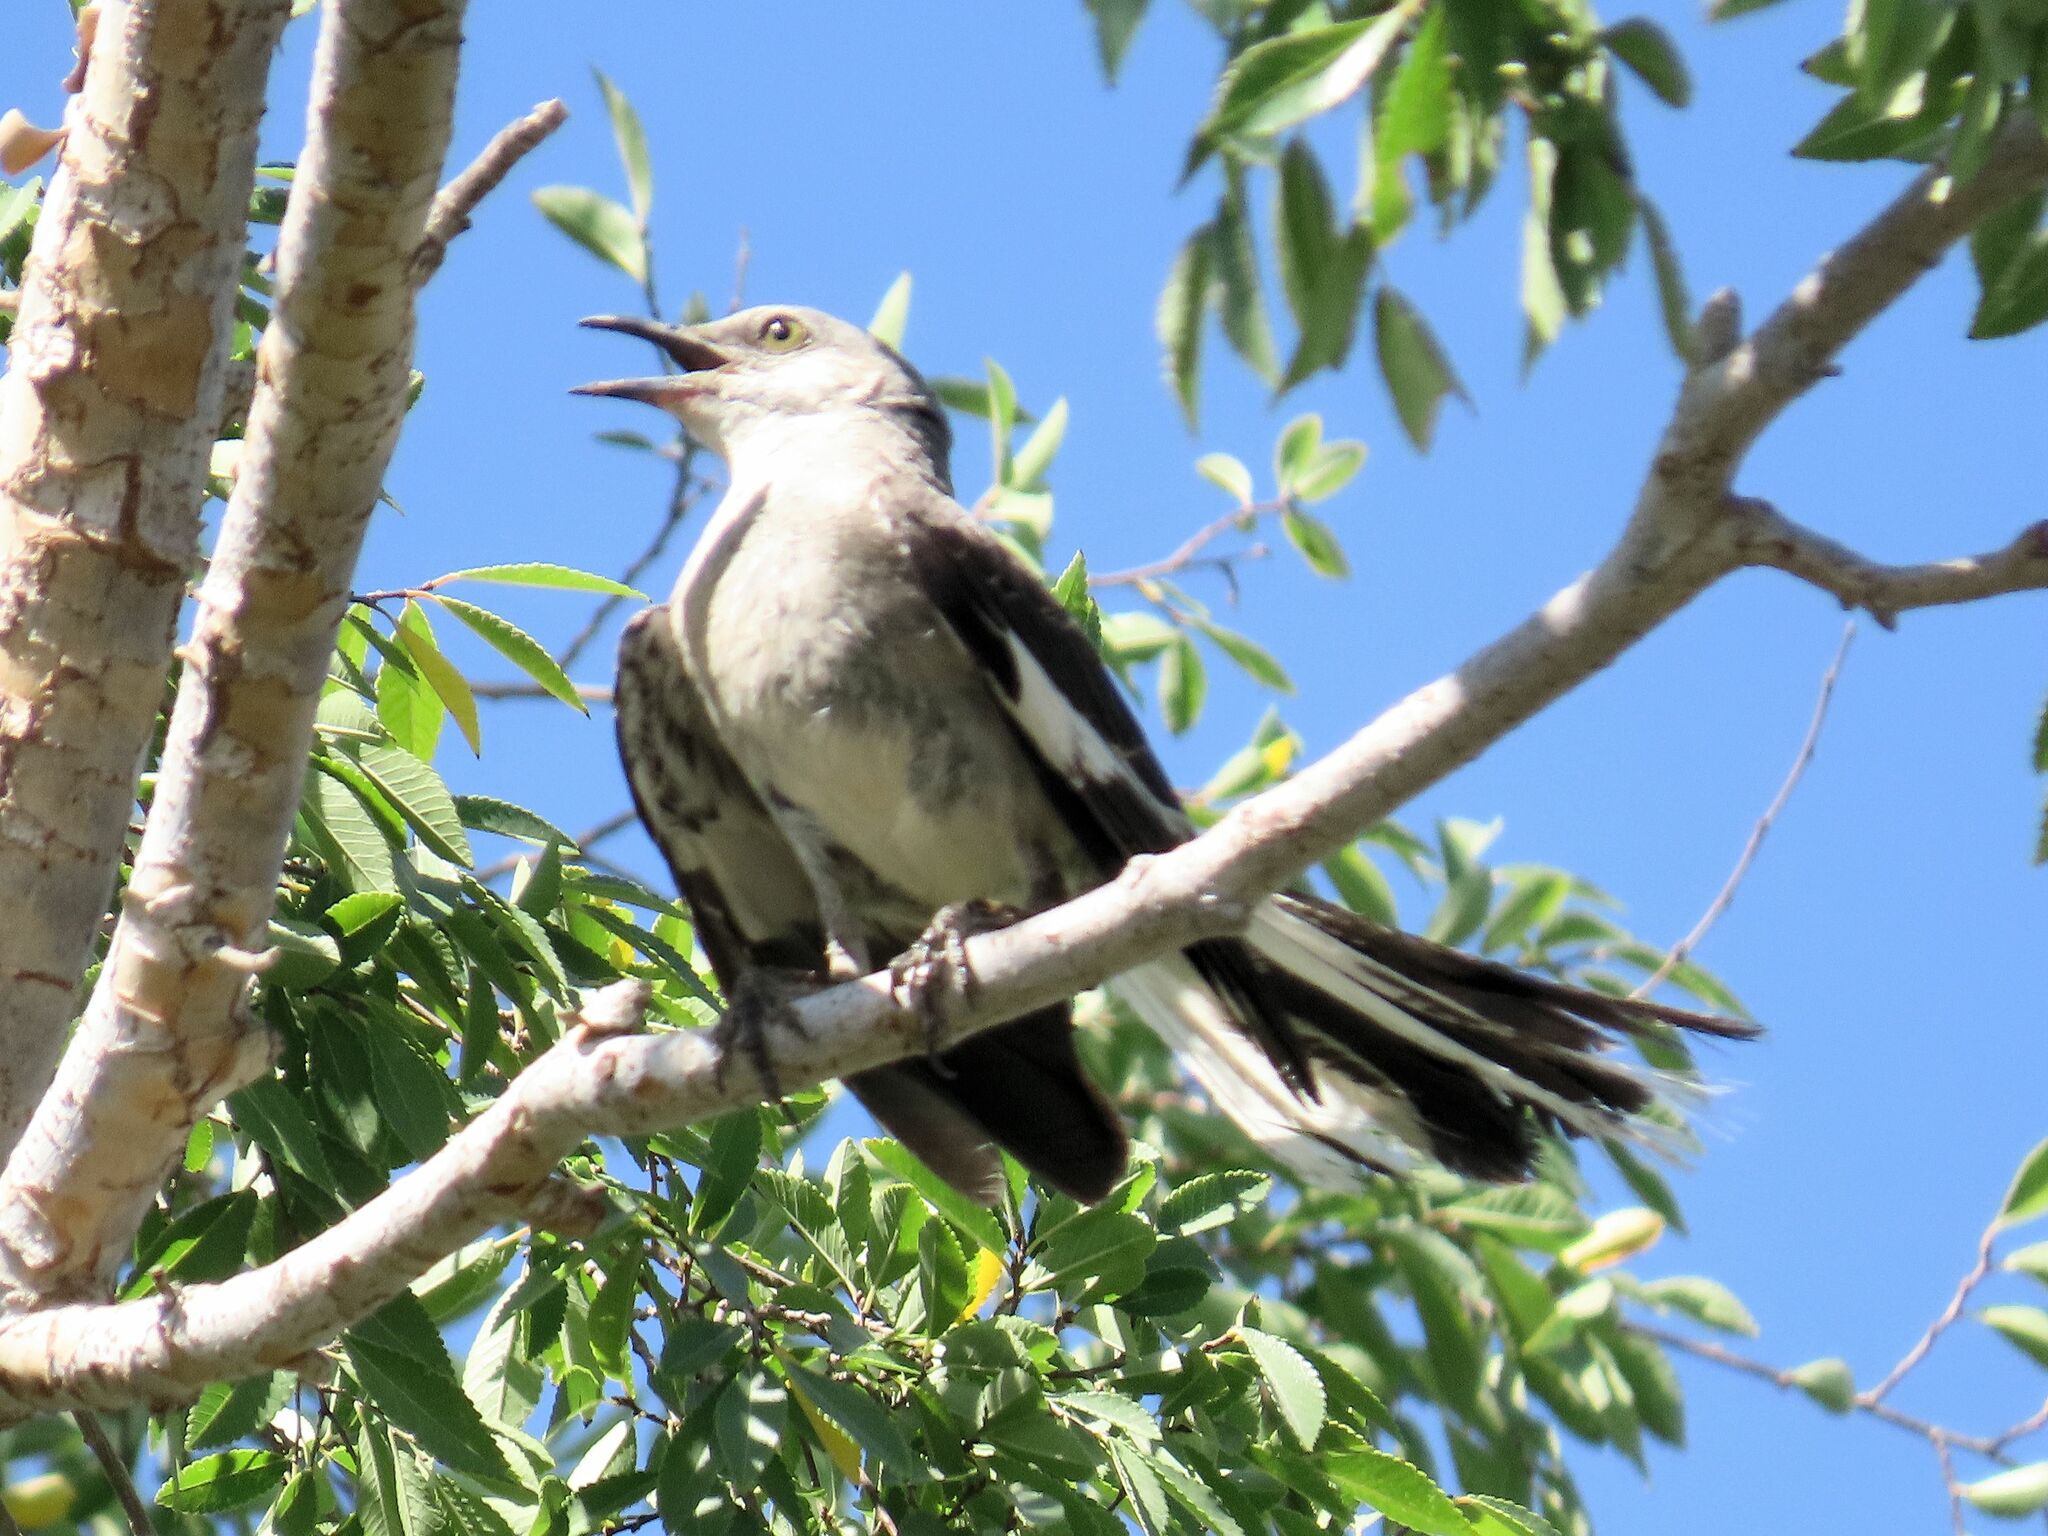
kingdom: Animalia
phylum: Chordata
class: Aves
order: Passeriformes
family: Mimidae
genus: Mimus
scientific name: Mimus polyglottos
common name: Northern mockingbird
